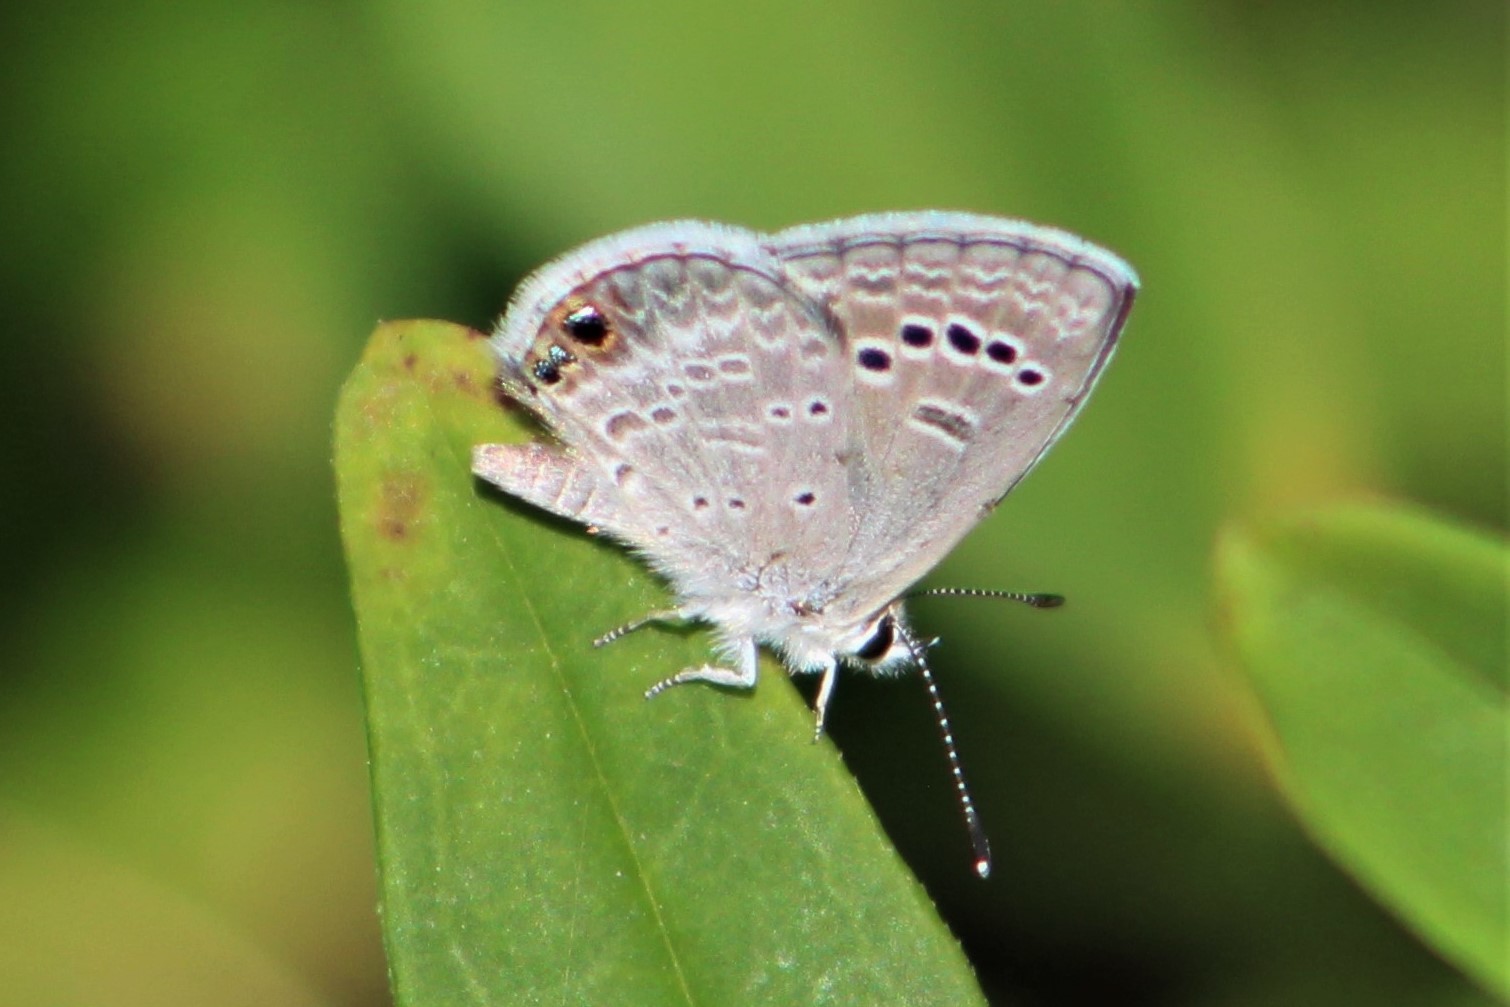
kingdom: Animalia
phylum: Arthropoda
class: Insecta
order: Lepidoptera
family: Lycaenidae
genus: Echinargus
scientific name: Echinargus isola
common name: Reakirt's blue
